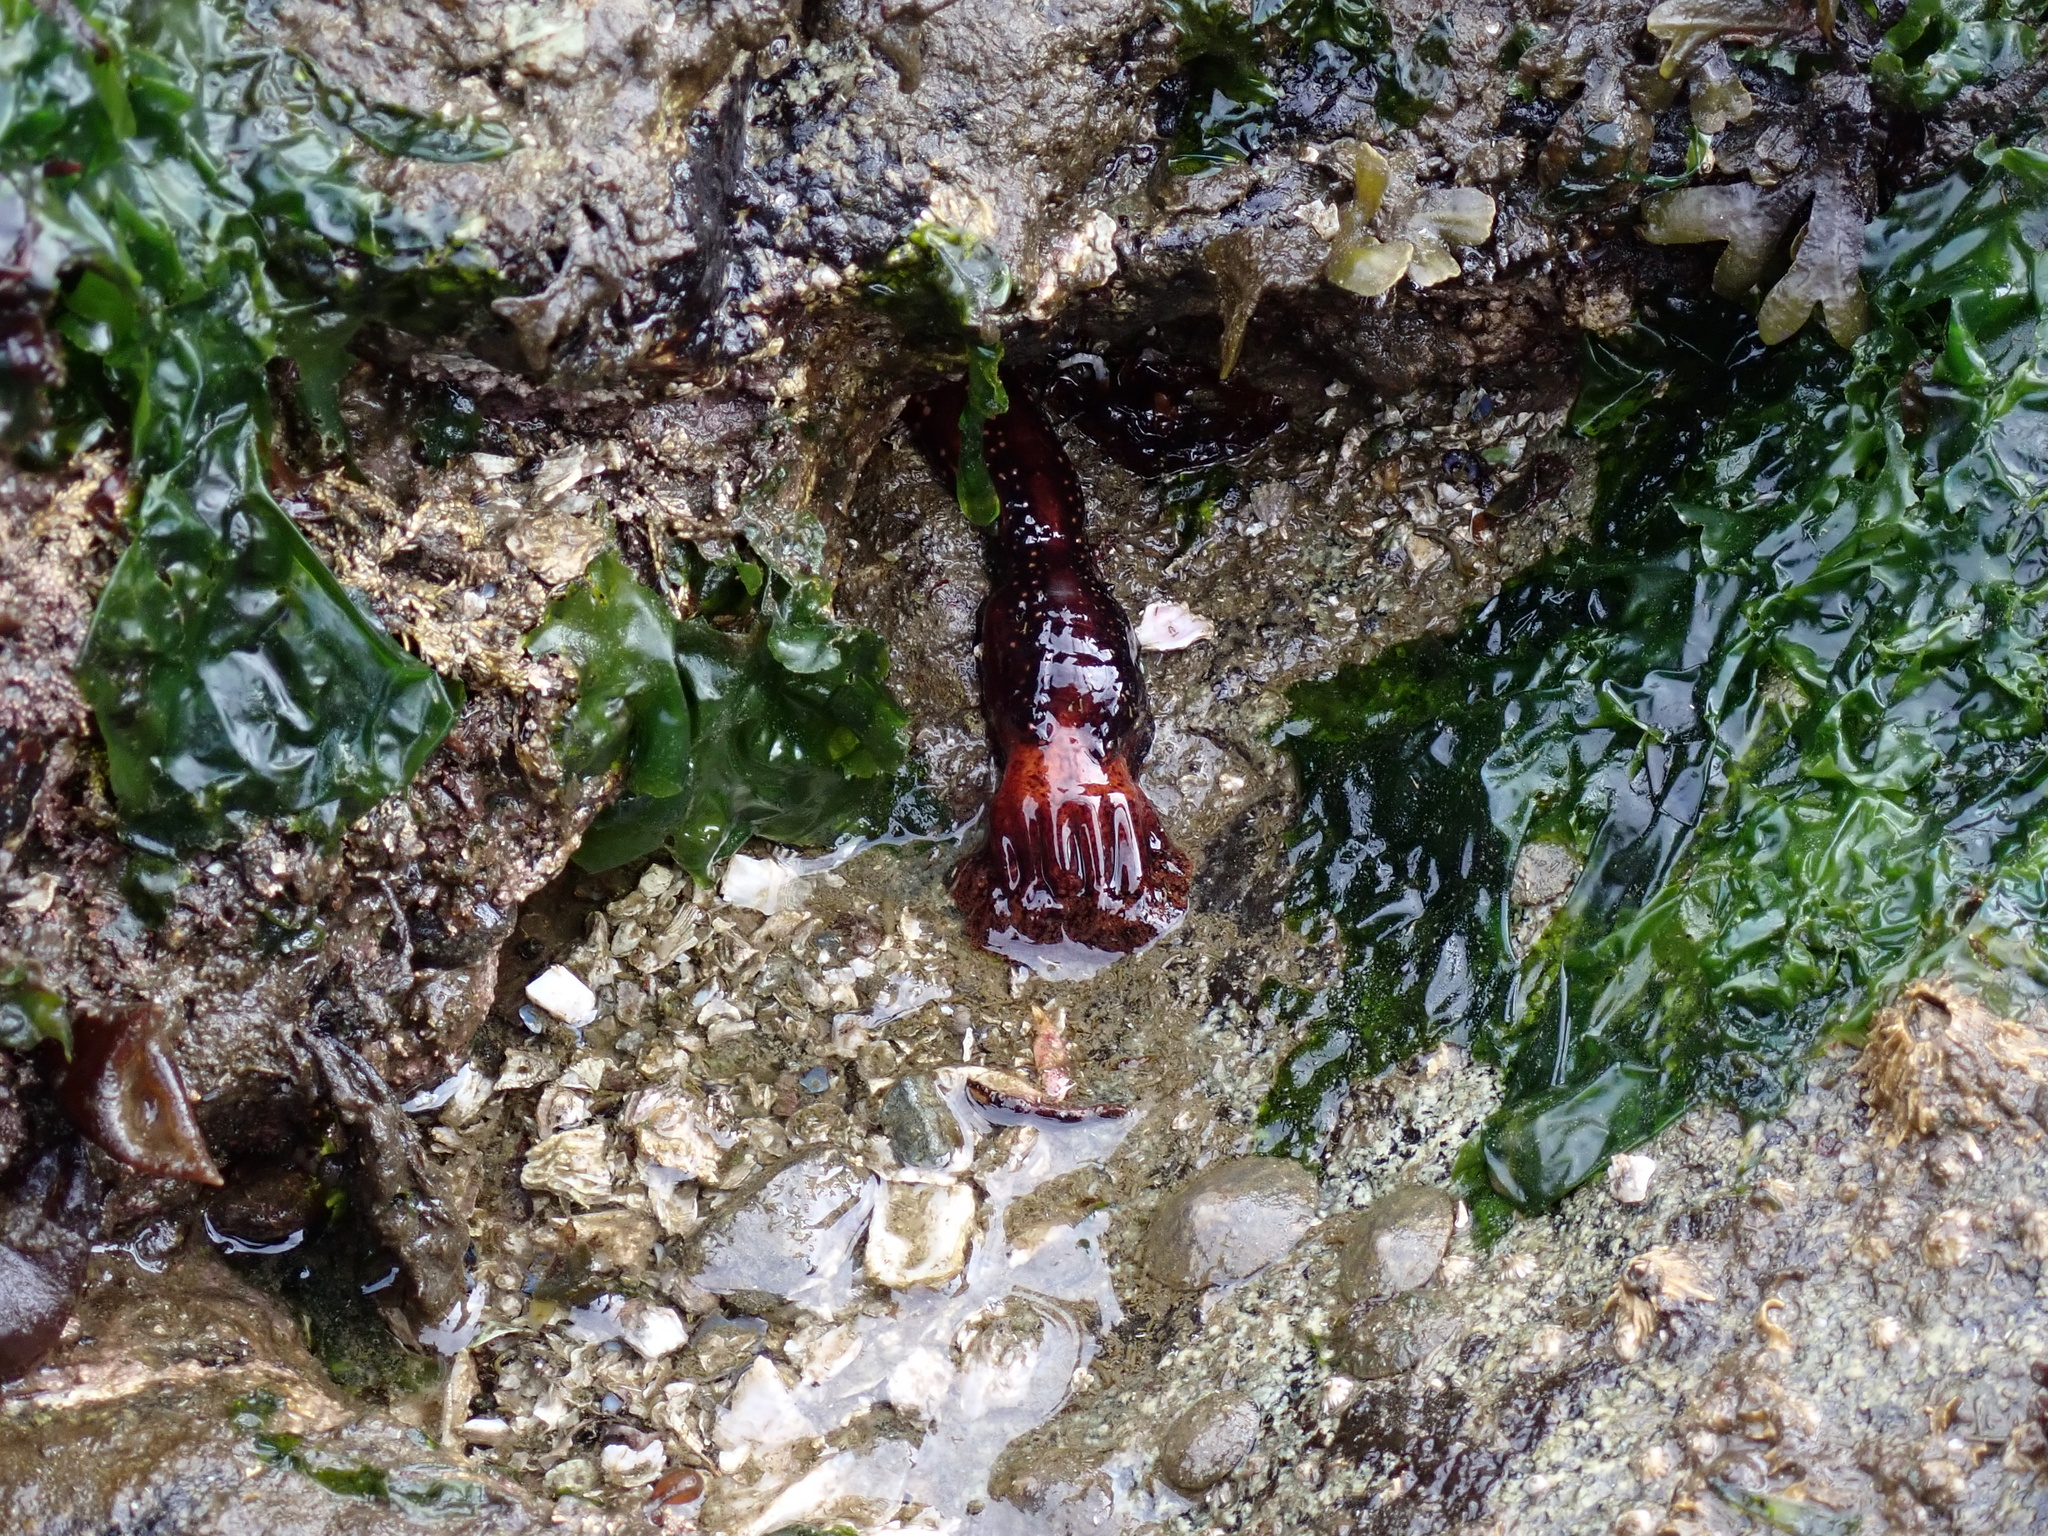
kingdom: Animalia
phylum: Echinodermata
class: Holothuroidea
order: Dendrochirotida
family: Cucumariidae
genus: Cucumaria
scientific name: Cucumaria miniata
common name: Orange sea cucumber
